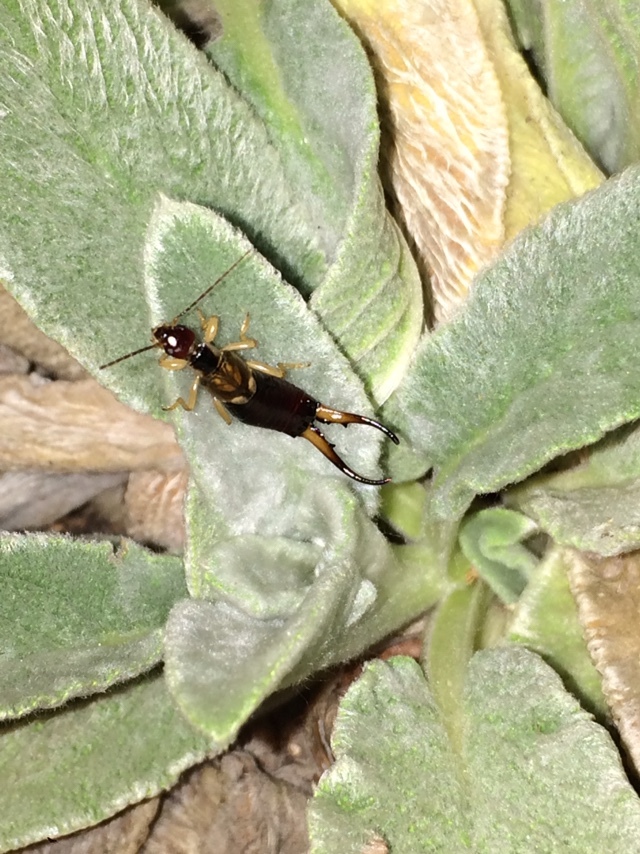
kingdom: Animalia
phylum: Arthropoda
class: Insecta
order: Dermaptera
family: Forficulidae
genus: Forficula
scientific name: Forficula
